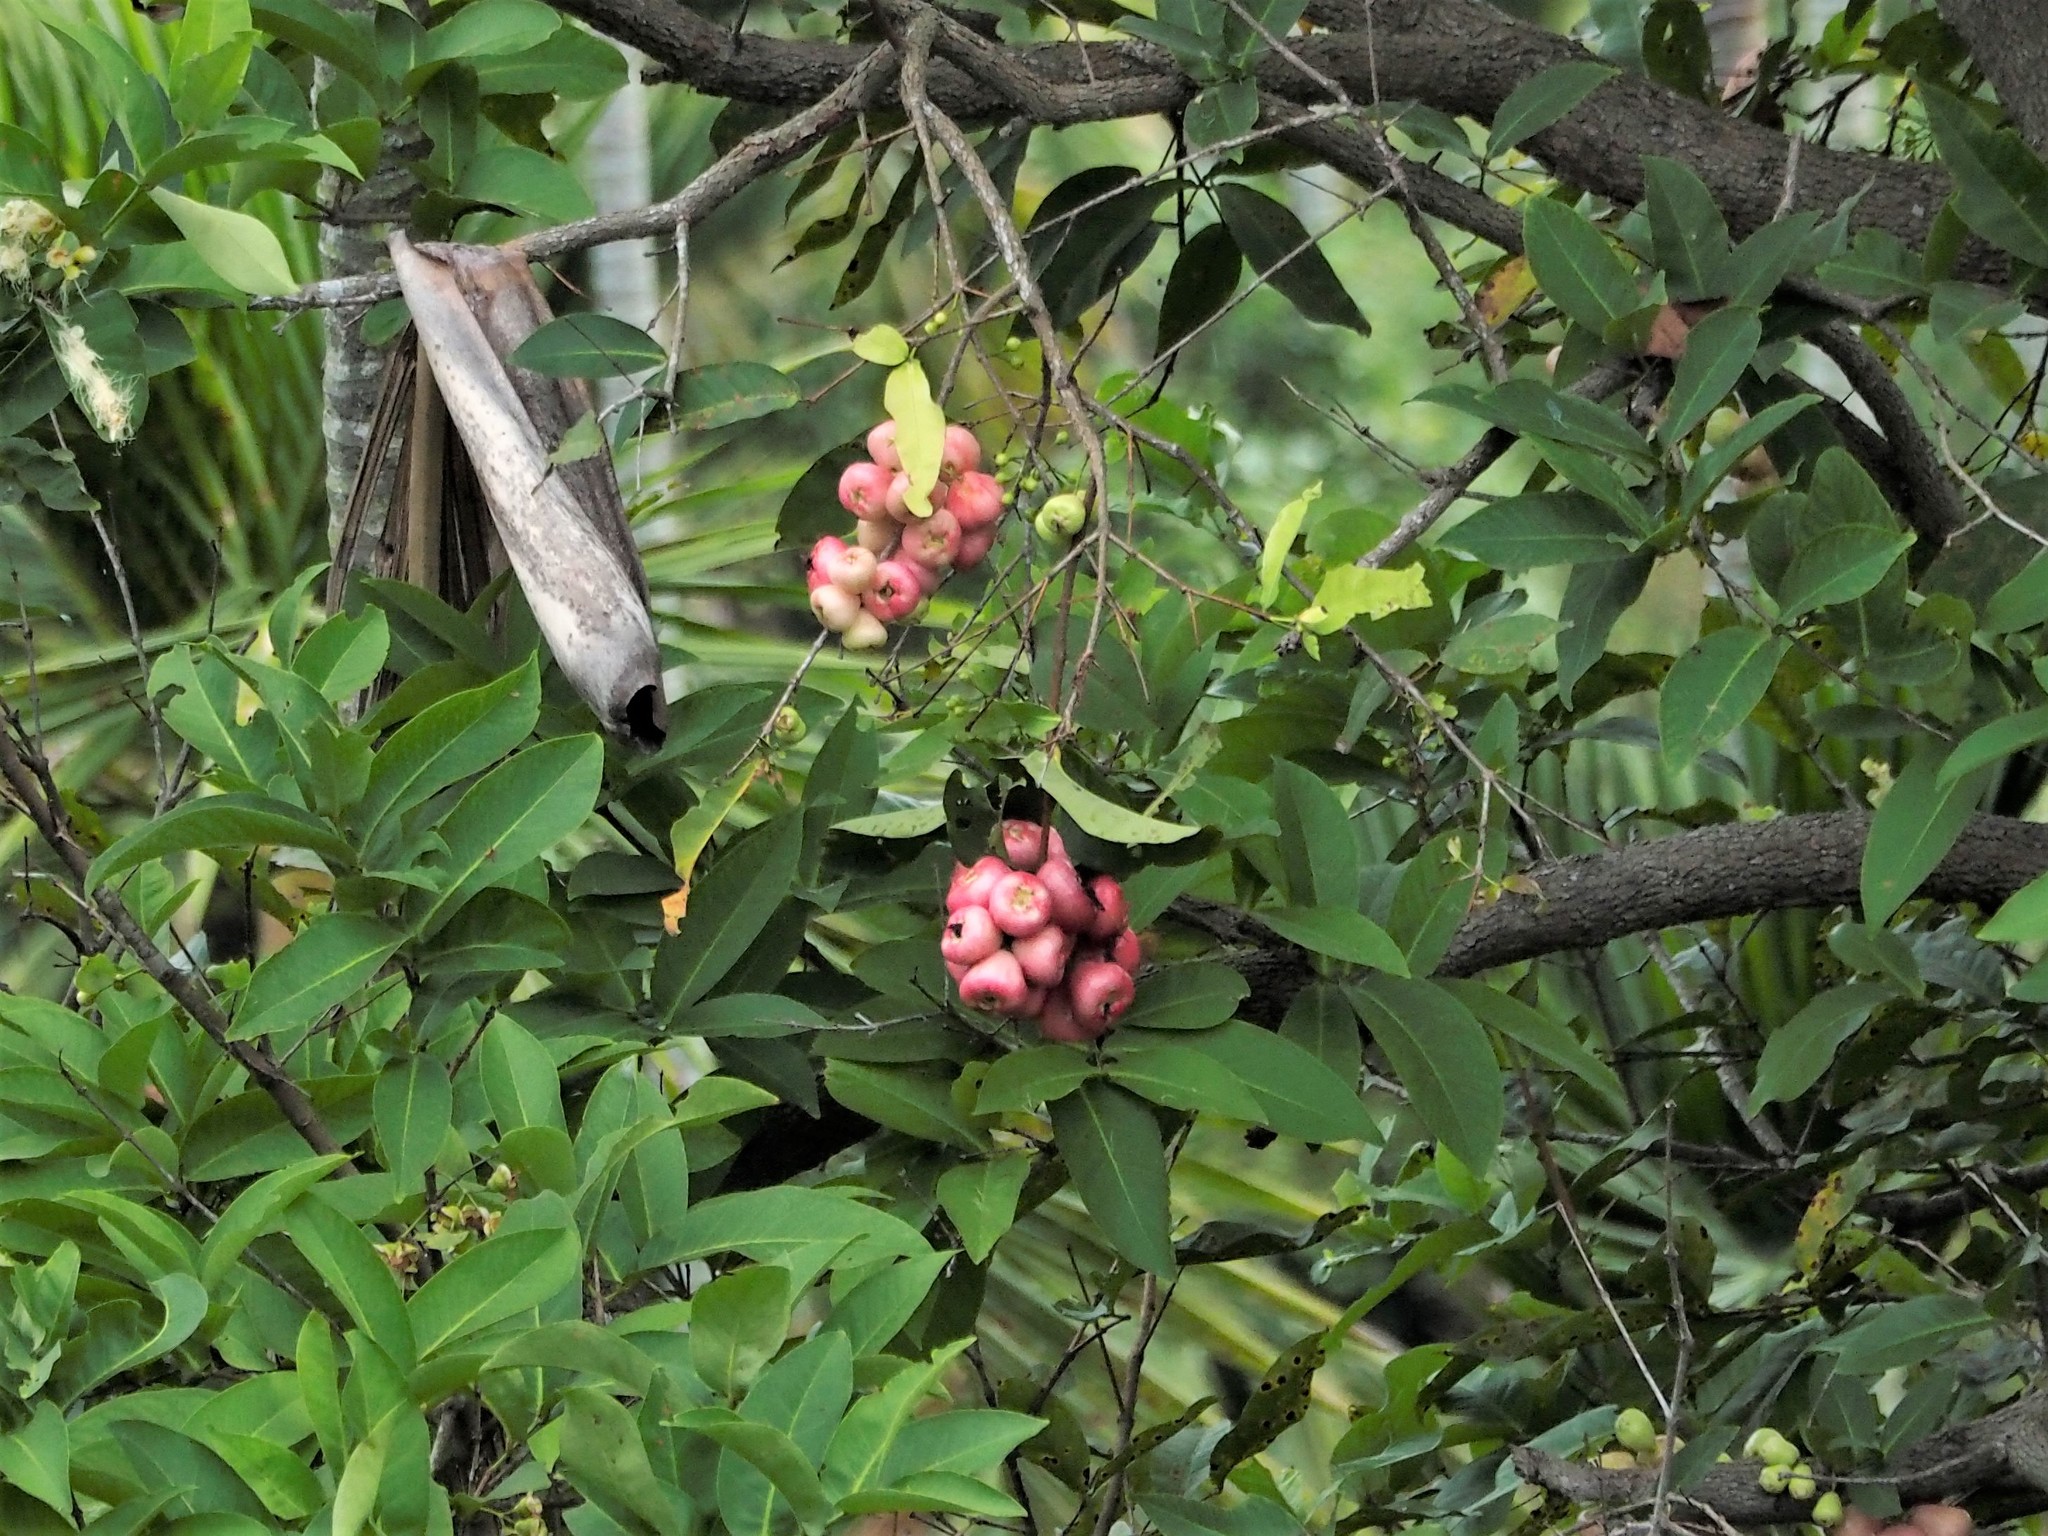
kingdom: Plantae
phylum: Tracheophyta
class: Magnoliopsida
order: Myrtales
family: Myrtaceae
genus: Syzygium
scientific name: Syzygium samarangense
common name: Semarang rose-apple
